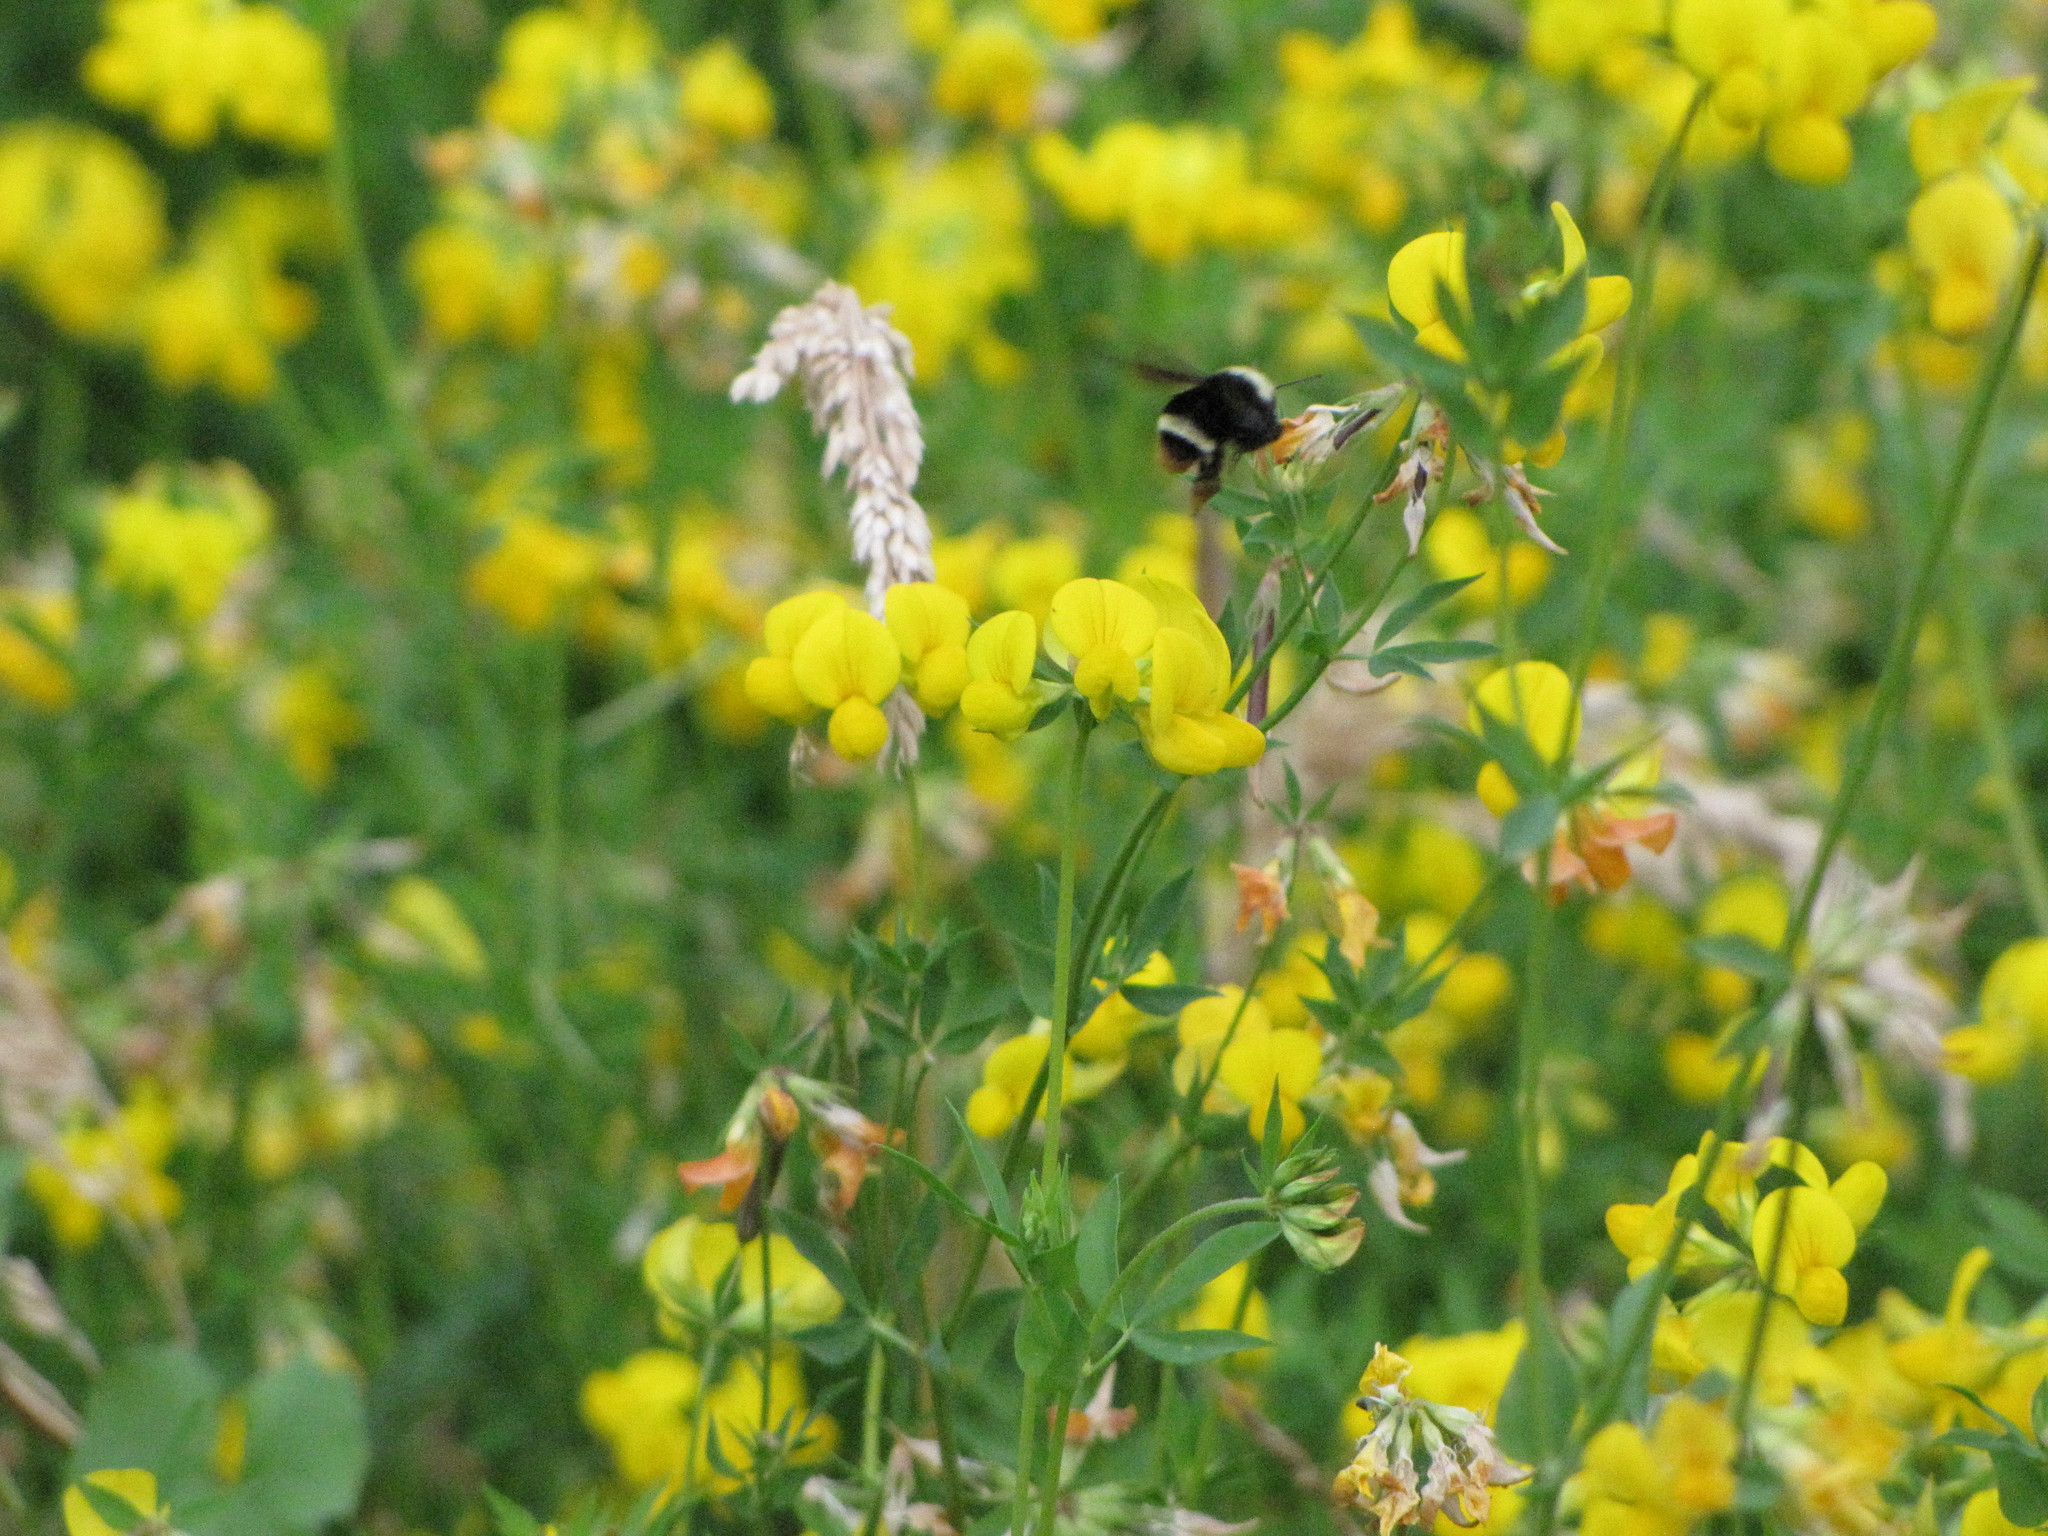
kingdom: Animalia
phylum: Arthropoda
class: Insecta
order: Hymenoptera
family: Apidae
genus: Bombus
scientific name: Bombus vosnesenskii
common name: Vosnesensky bumble bee
